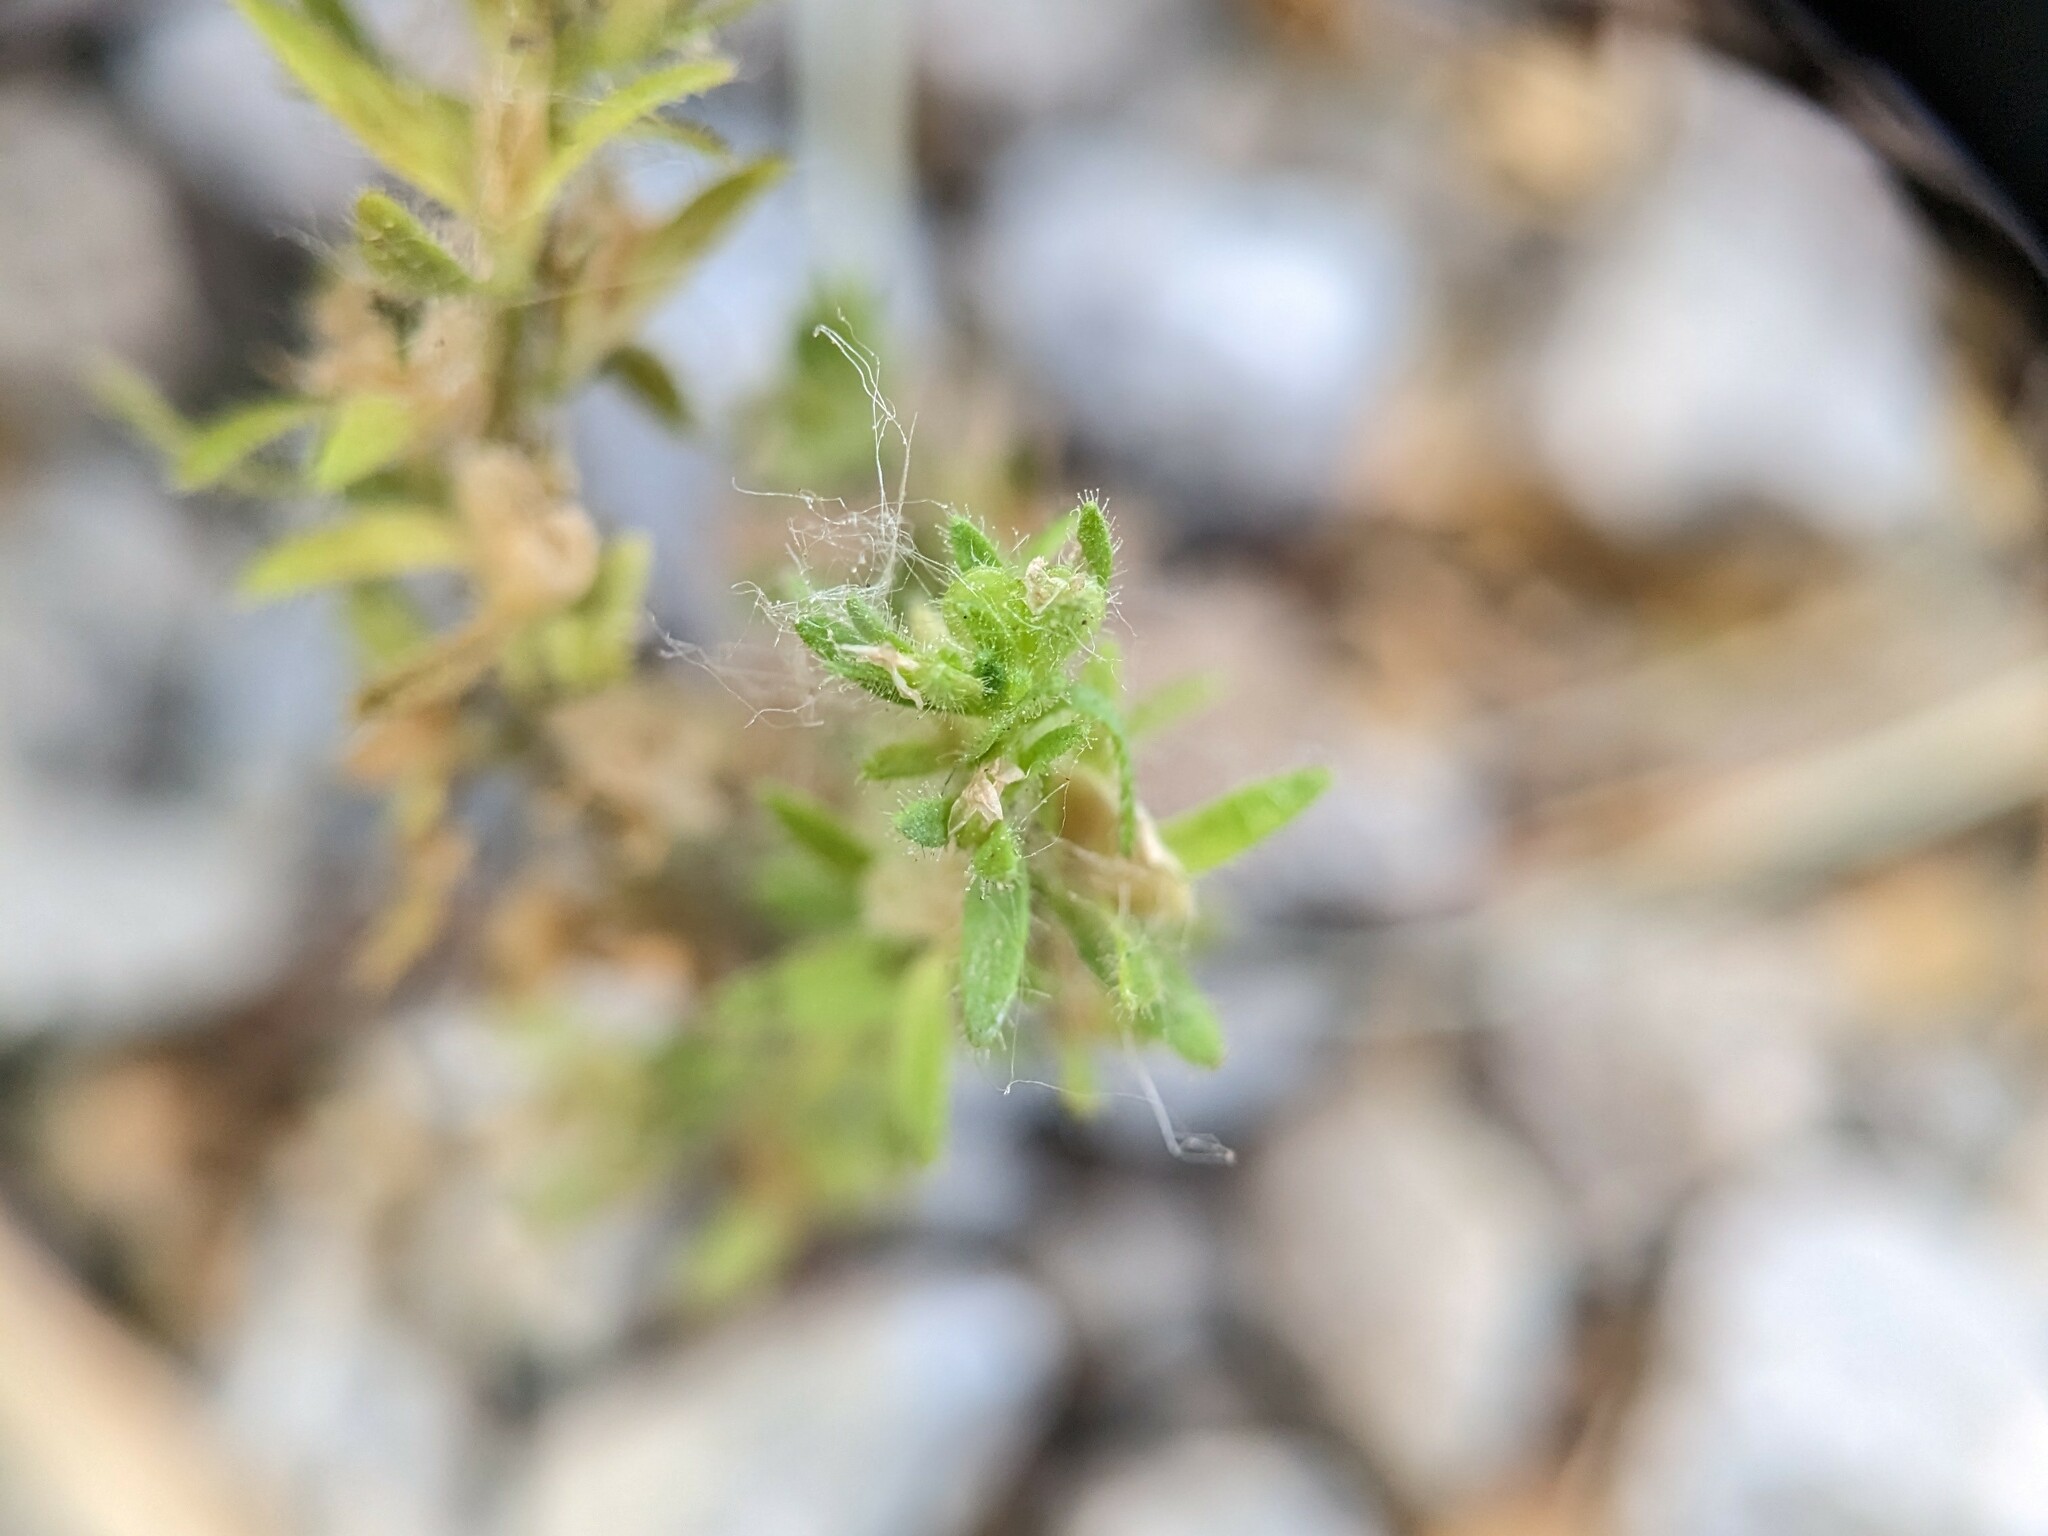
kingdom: Plantae
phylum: Tracheophyta
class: Magnoliopsida
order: Lamiales
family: Plantaginaceae
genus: Veronica
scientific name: Veronica arvensis
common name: Corn speedwell
